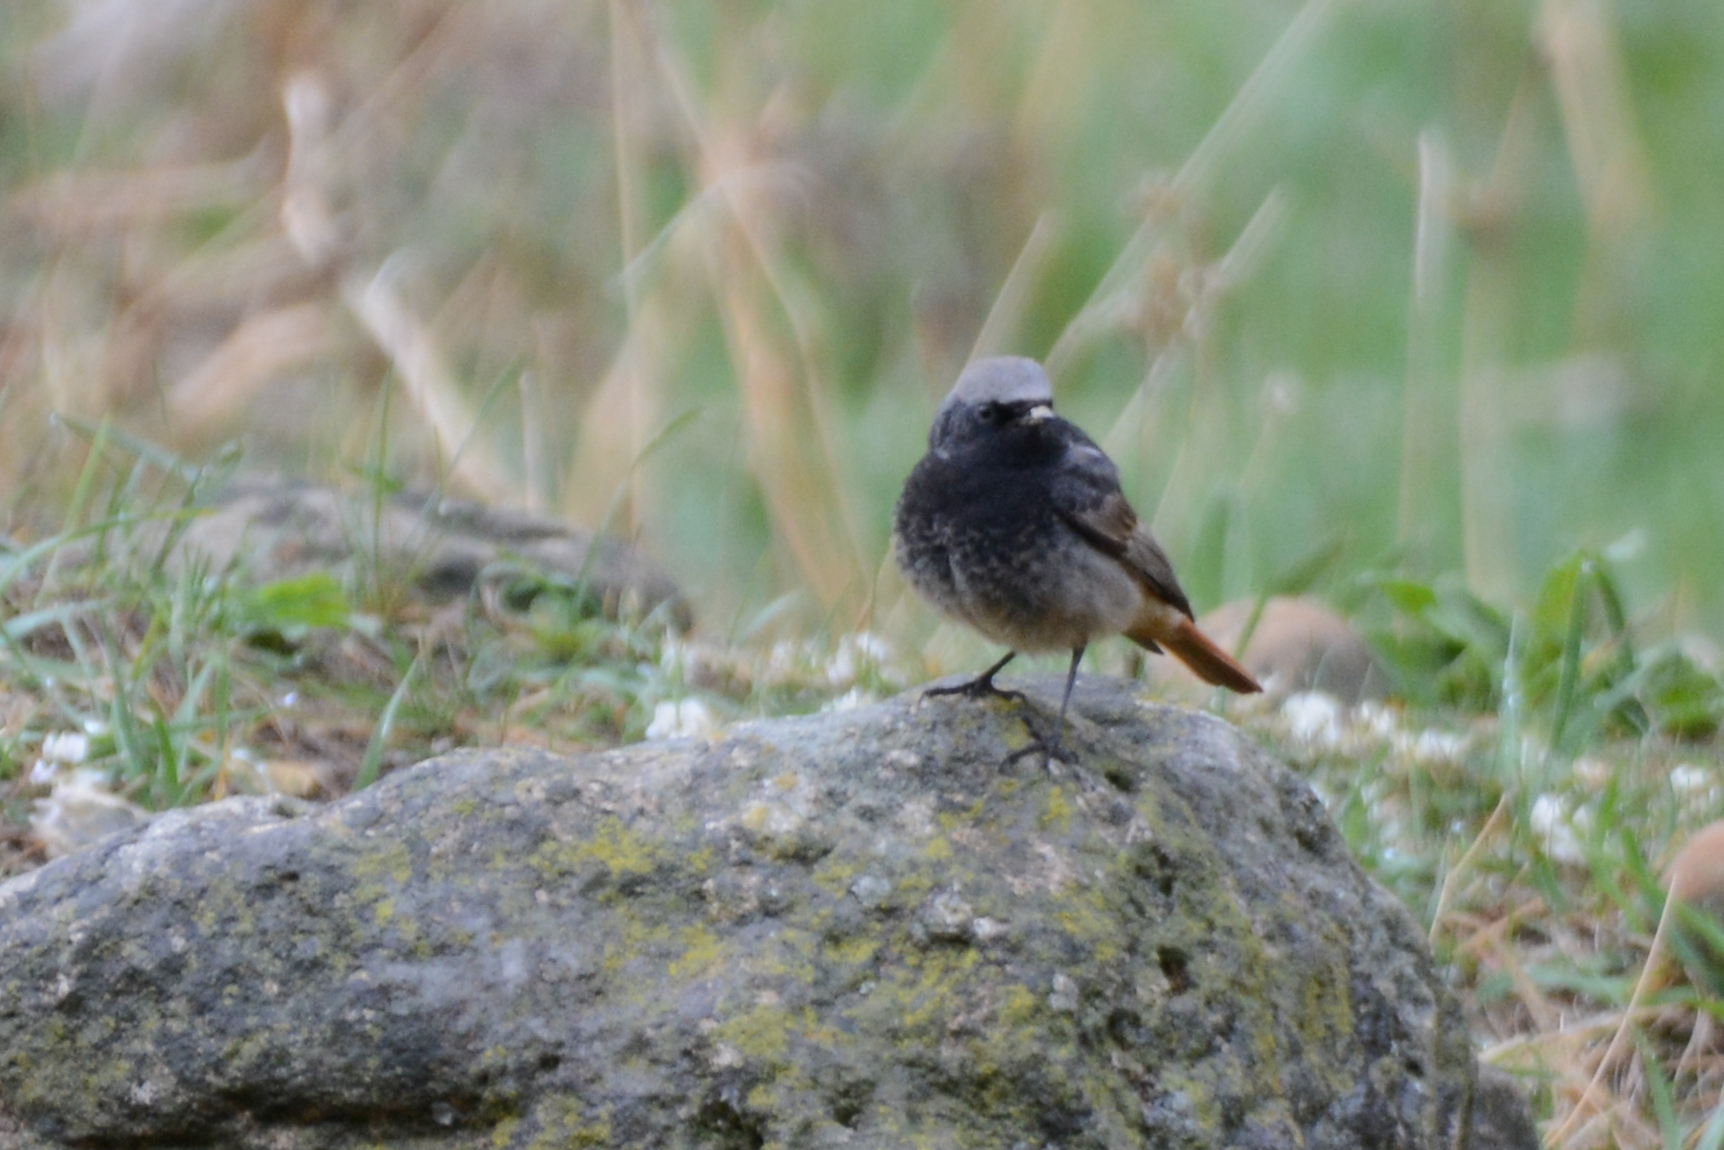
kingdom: Animalia
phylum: Chordata
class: Aves
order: Passeriformes
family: Muscicapidae
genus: Phoenicurus
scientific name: Phoenicurus ochruros
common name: Black redstart
